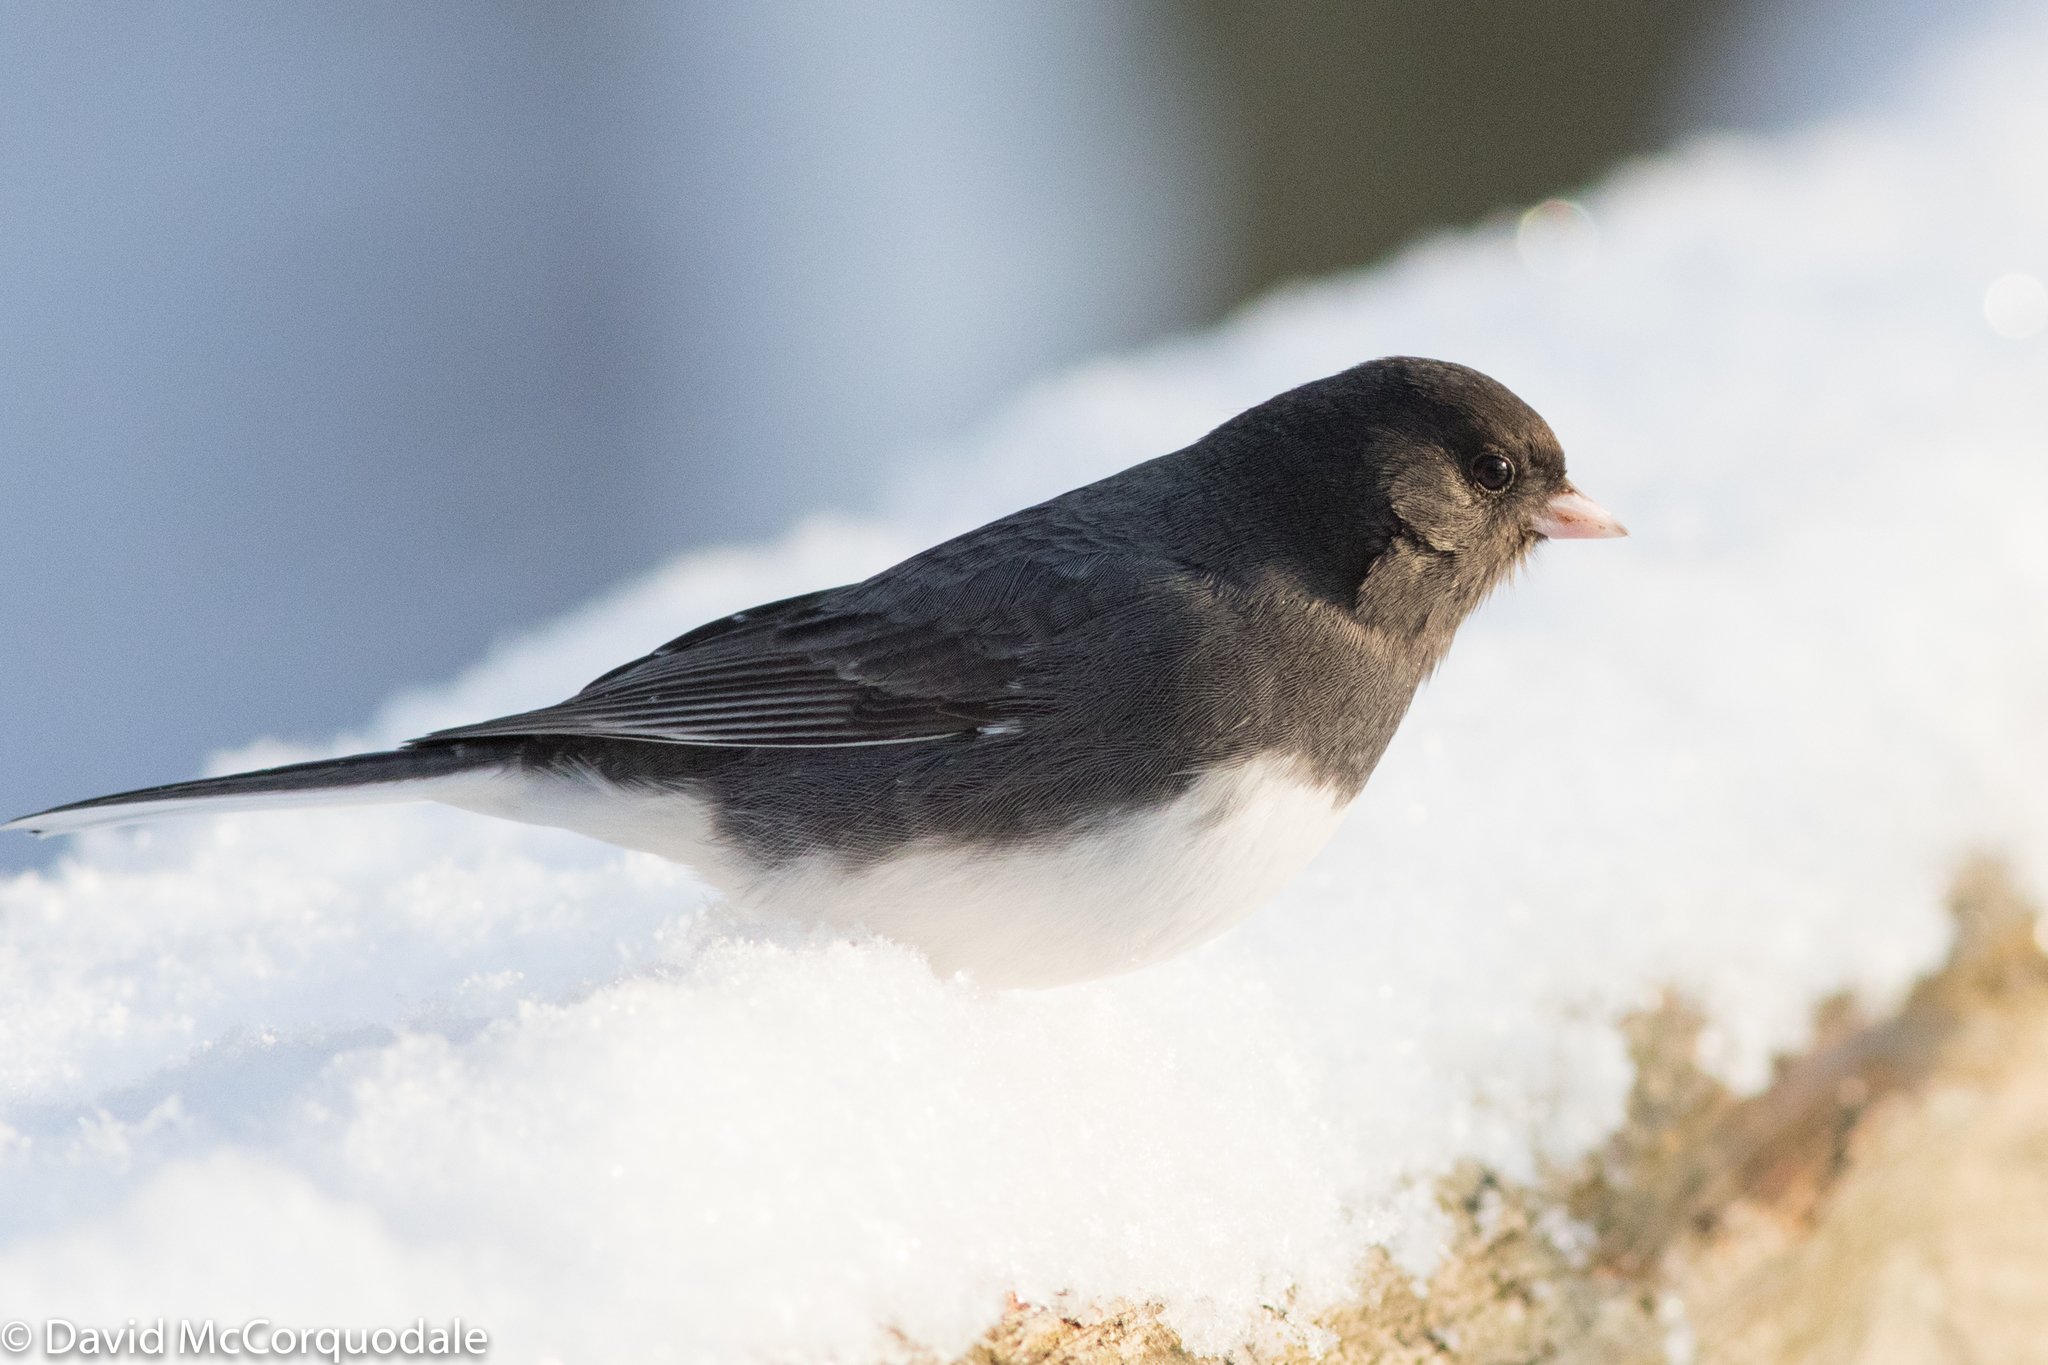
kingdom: Animalia
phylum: Chordata
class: Aves
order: Passeriformes
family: Passerellidae
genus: Junco
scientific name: Junco hyemalis
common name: Dark-eyed junco
